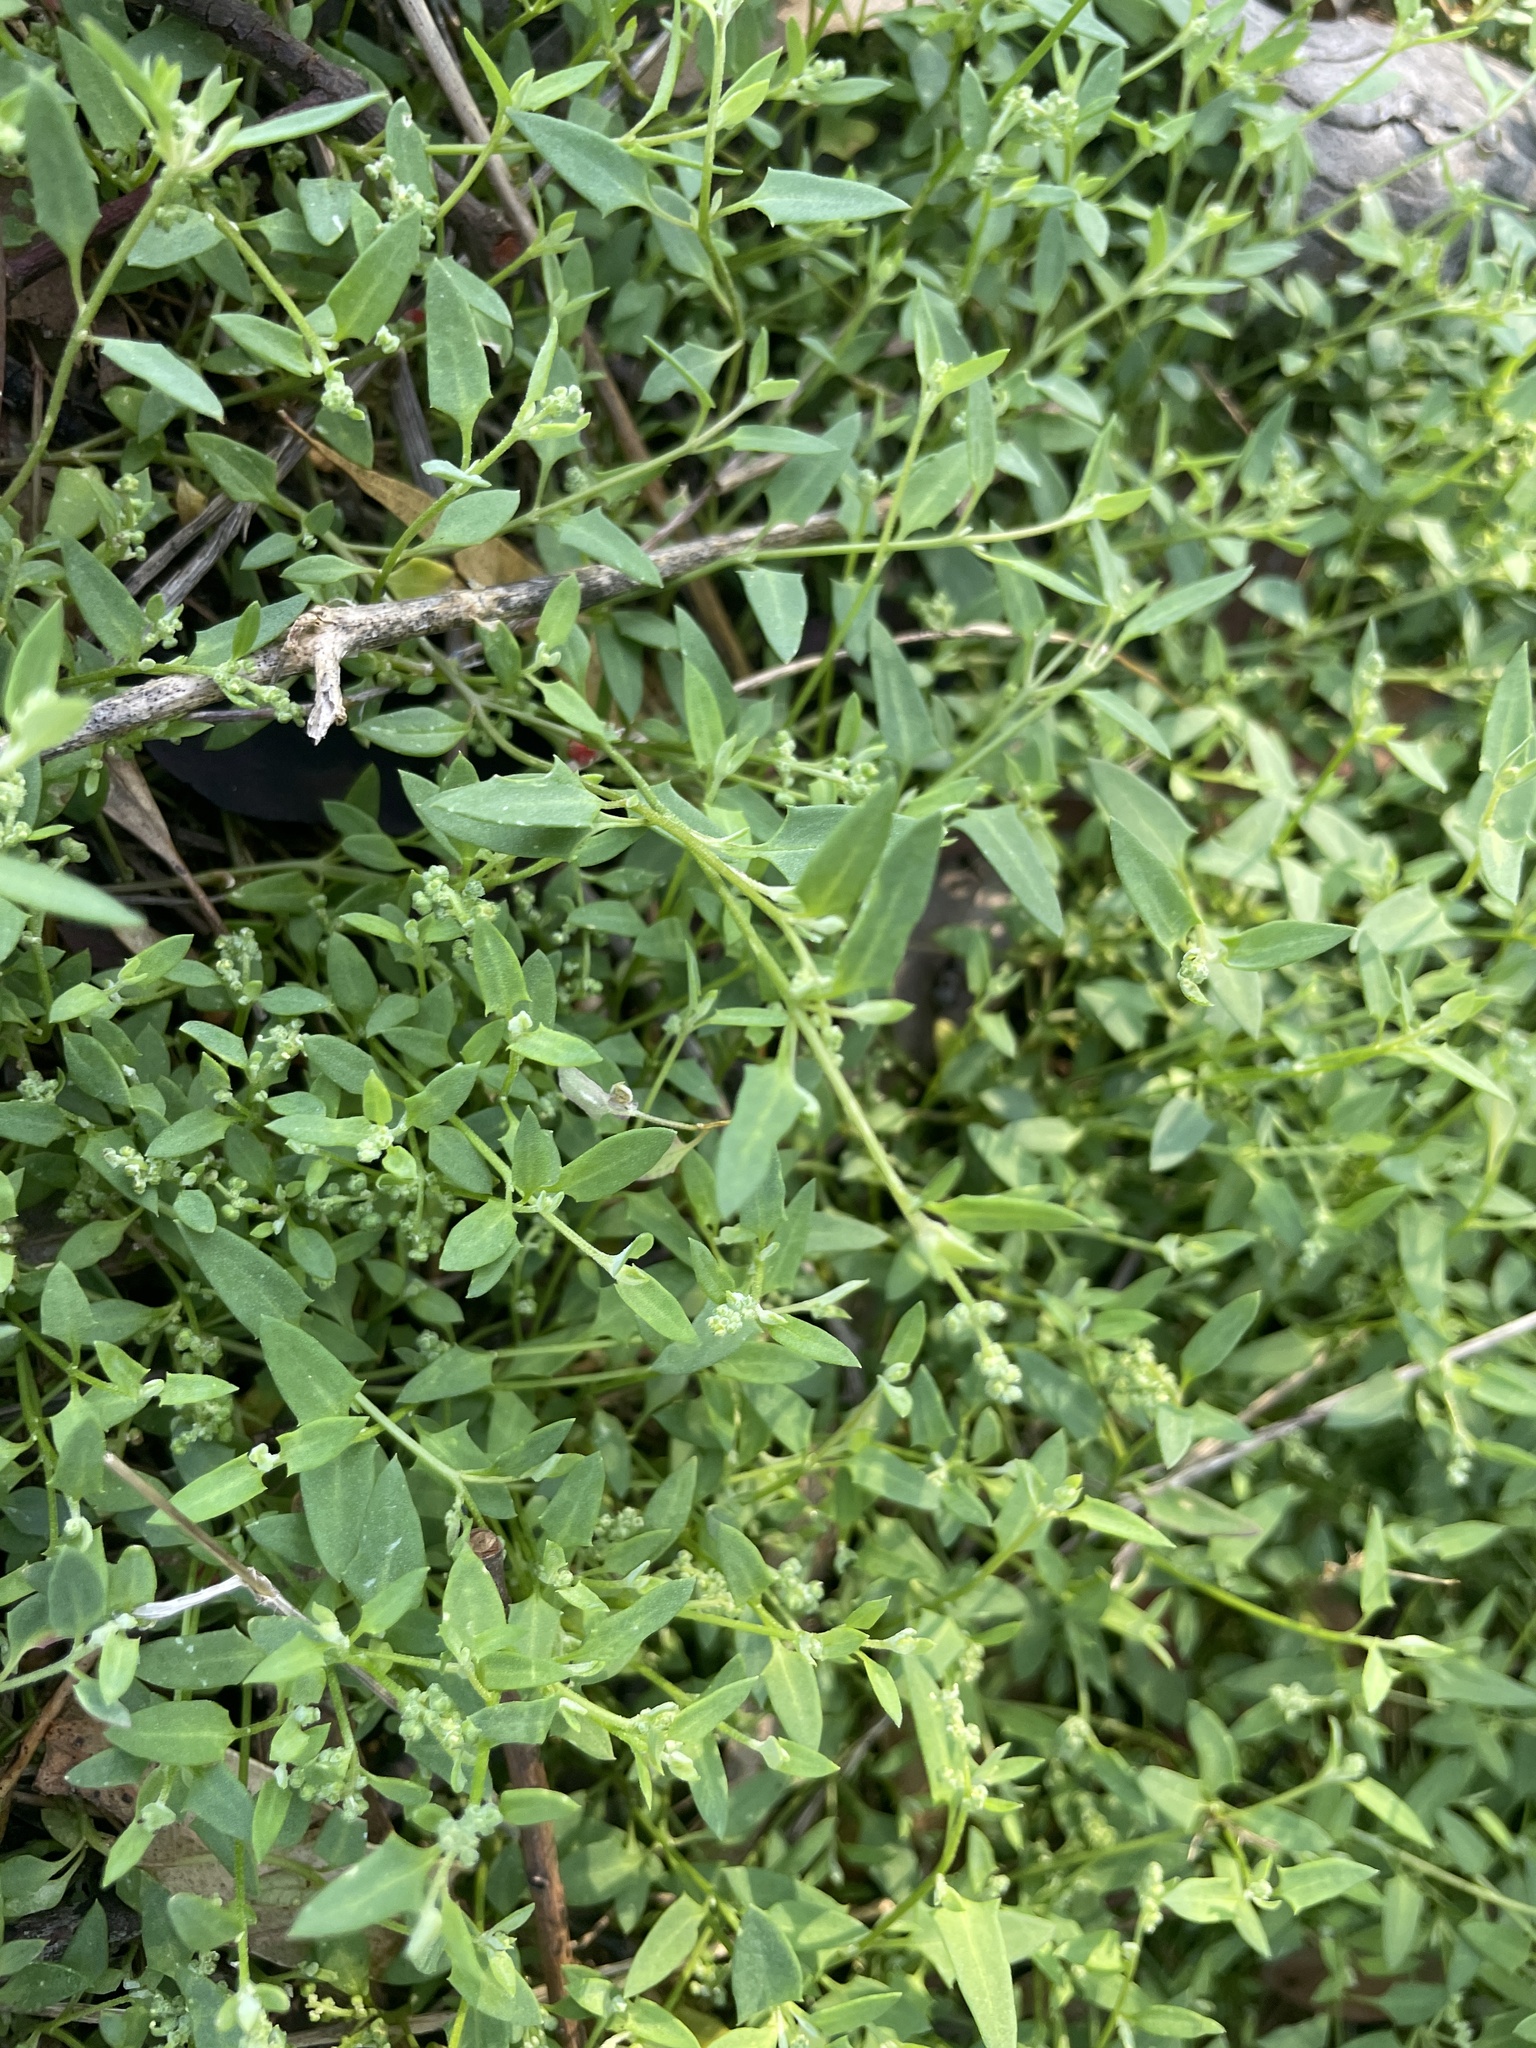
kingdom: Plantae
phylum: Tracheophyta
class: Magnoliopsida
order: Caryophyllales
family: Amaranthaceae
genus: Chenopodium
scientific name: Chenopodium nutans
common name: Climbing-saltbush
